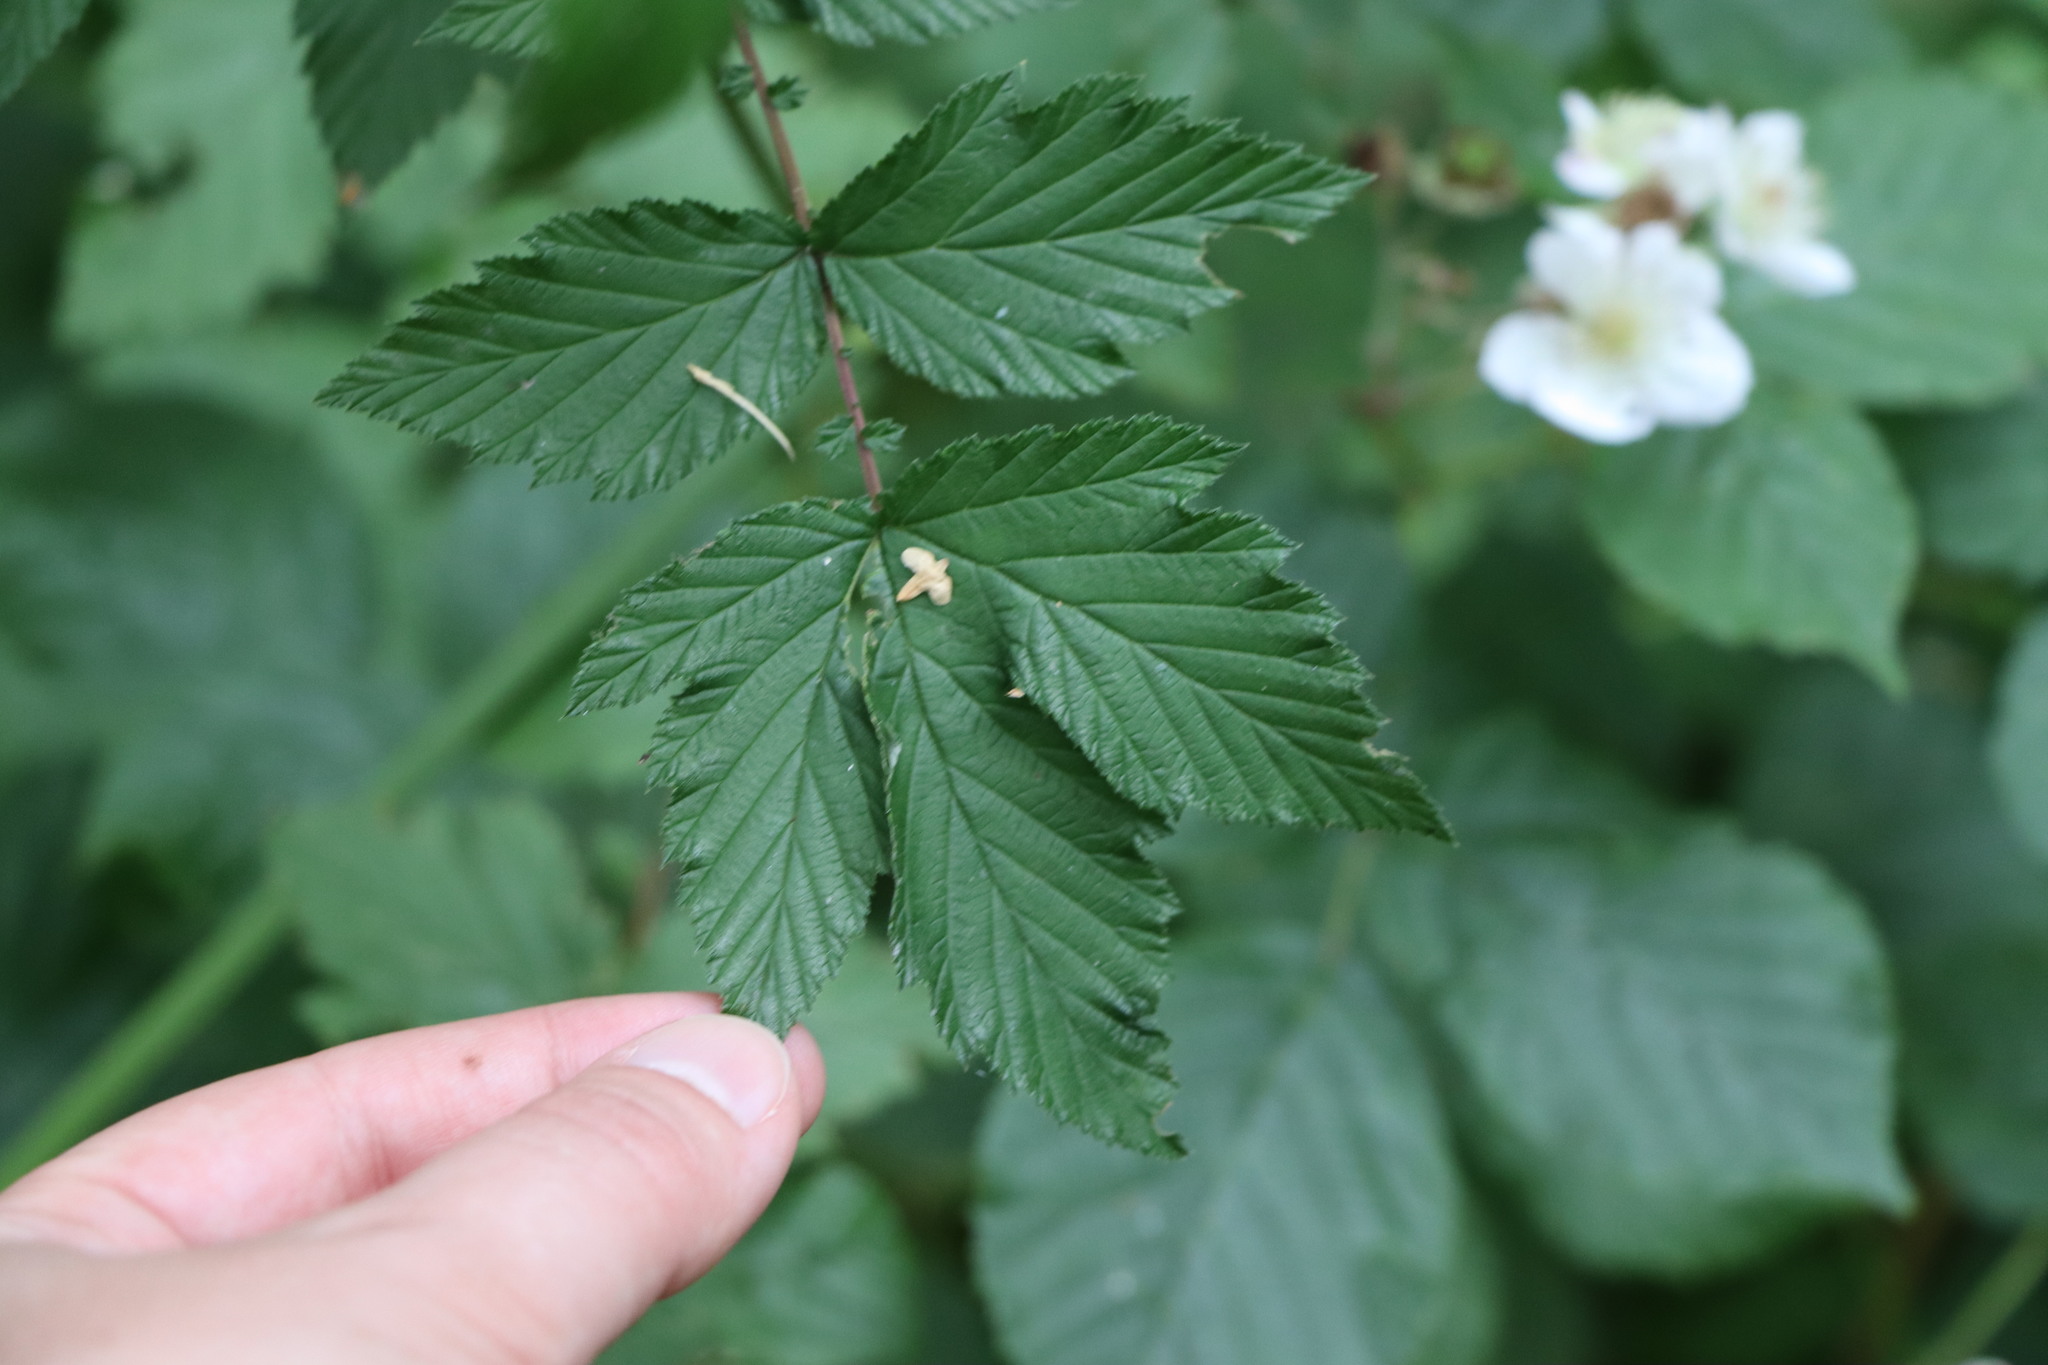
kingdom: Plantae
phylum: Tracheophyta
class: Magnoliopsida
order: Rosales
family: Rosaceae
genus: Filipendula
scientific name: Filipendula ulmaria
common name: Meadowsweet
